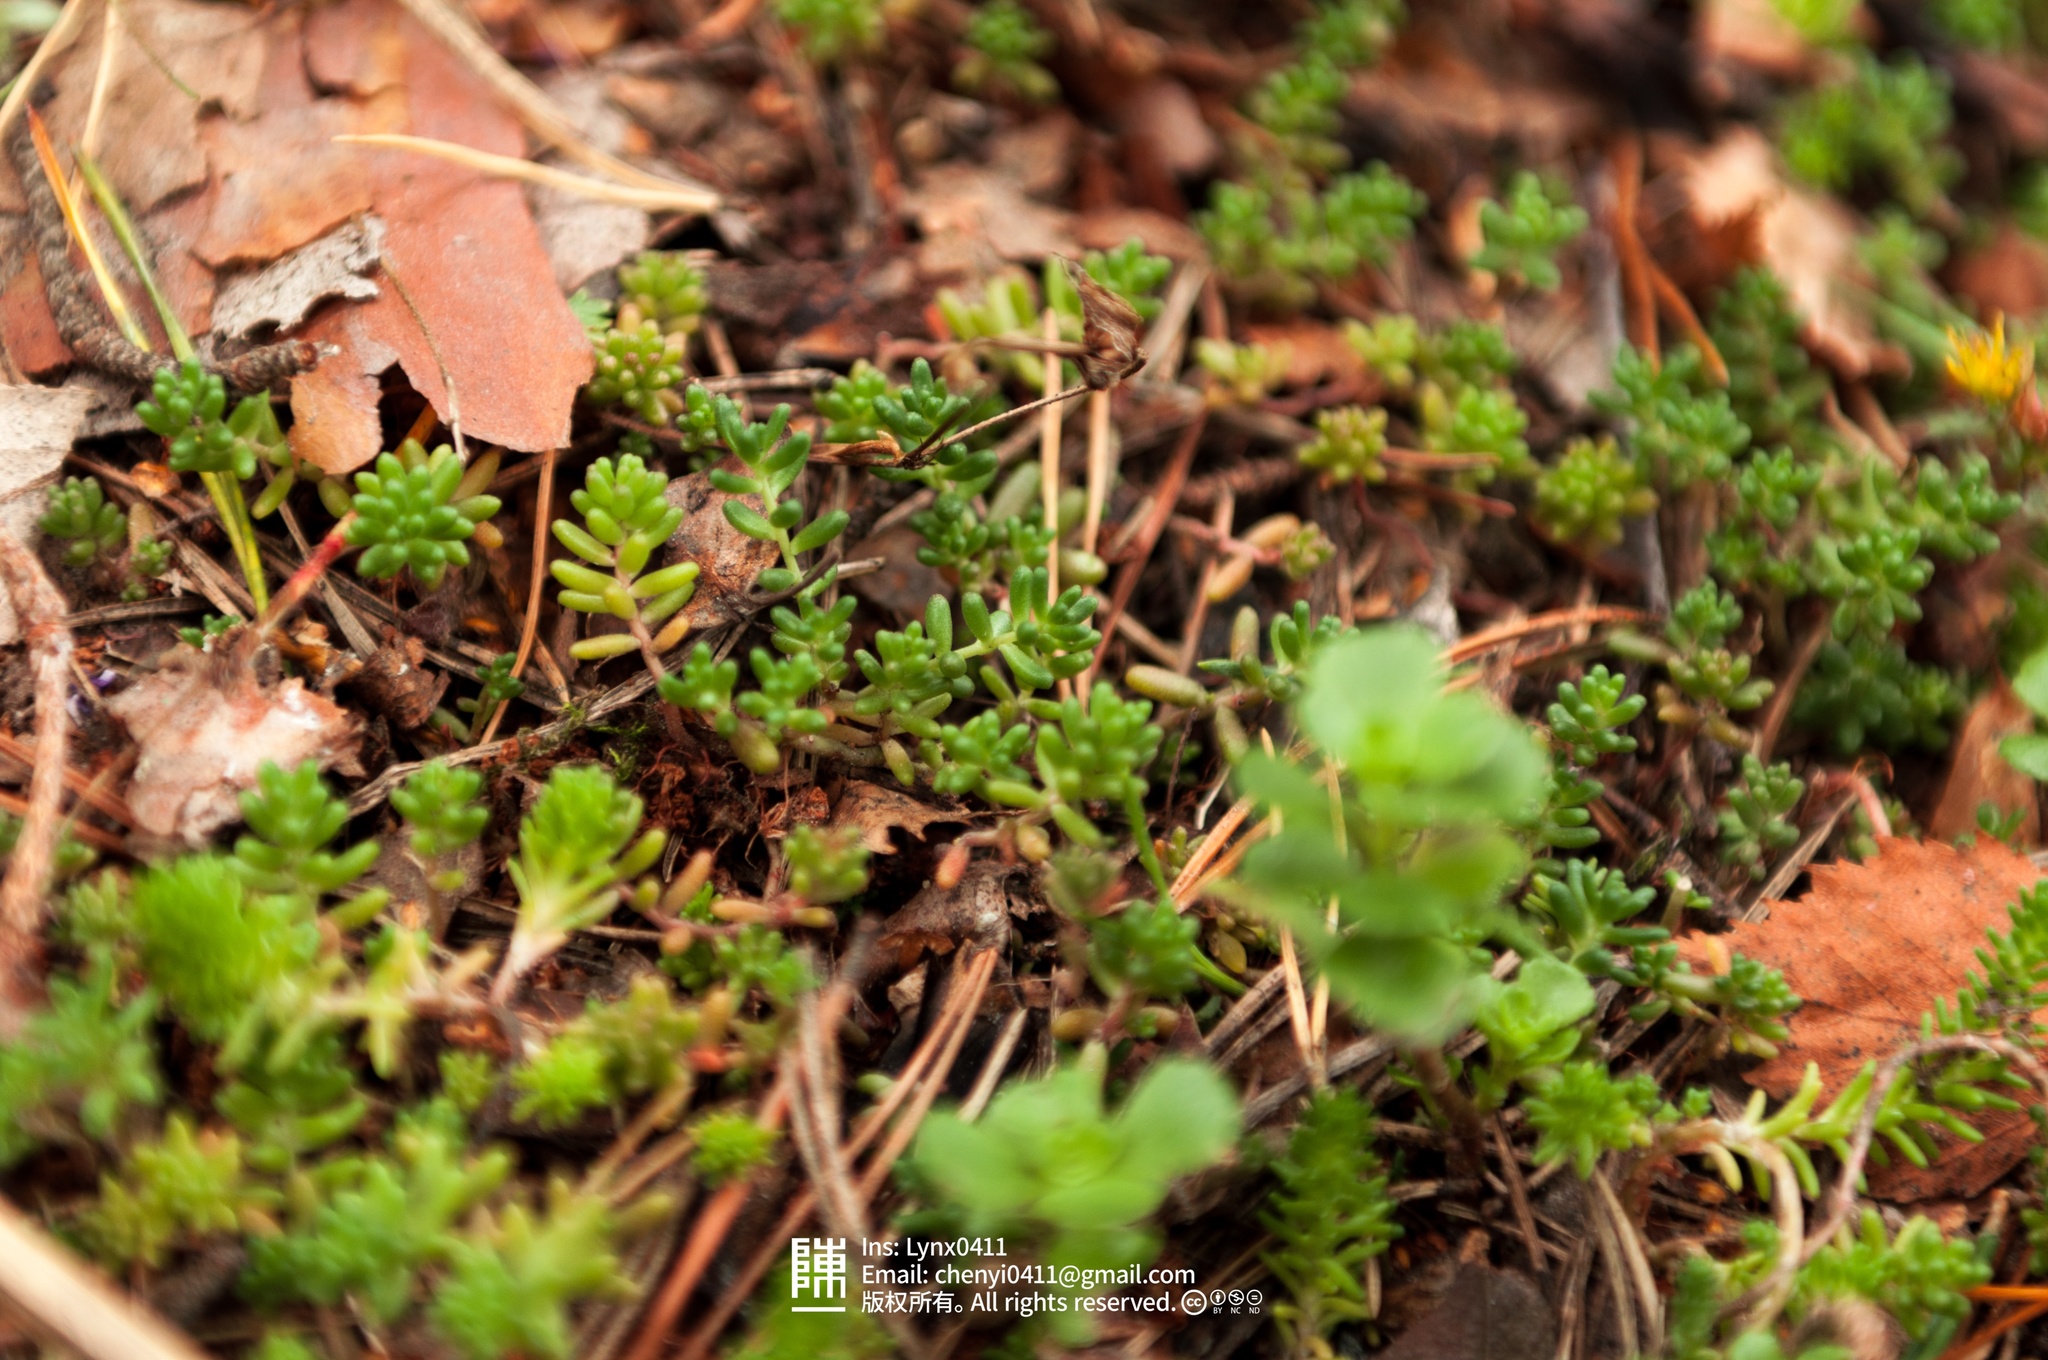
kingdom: Plantae
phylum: Tracheophyta
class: Magnoliopsida
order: Saxifragales
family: Crassulaceae
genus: Sedum
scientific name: Sedum sexangulare
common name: Tasteless stonecrop
